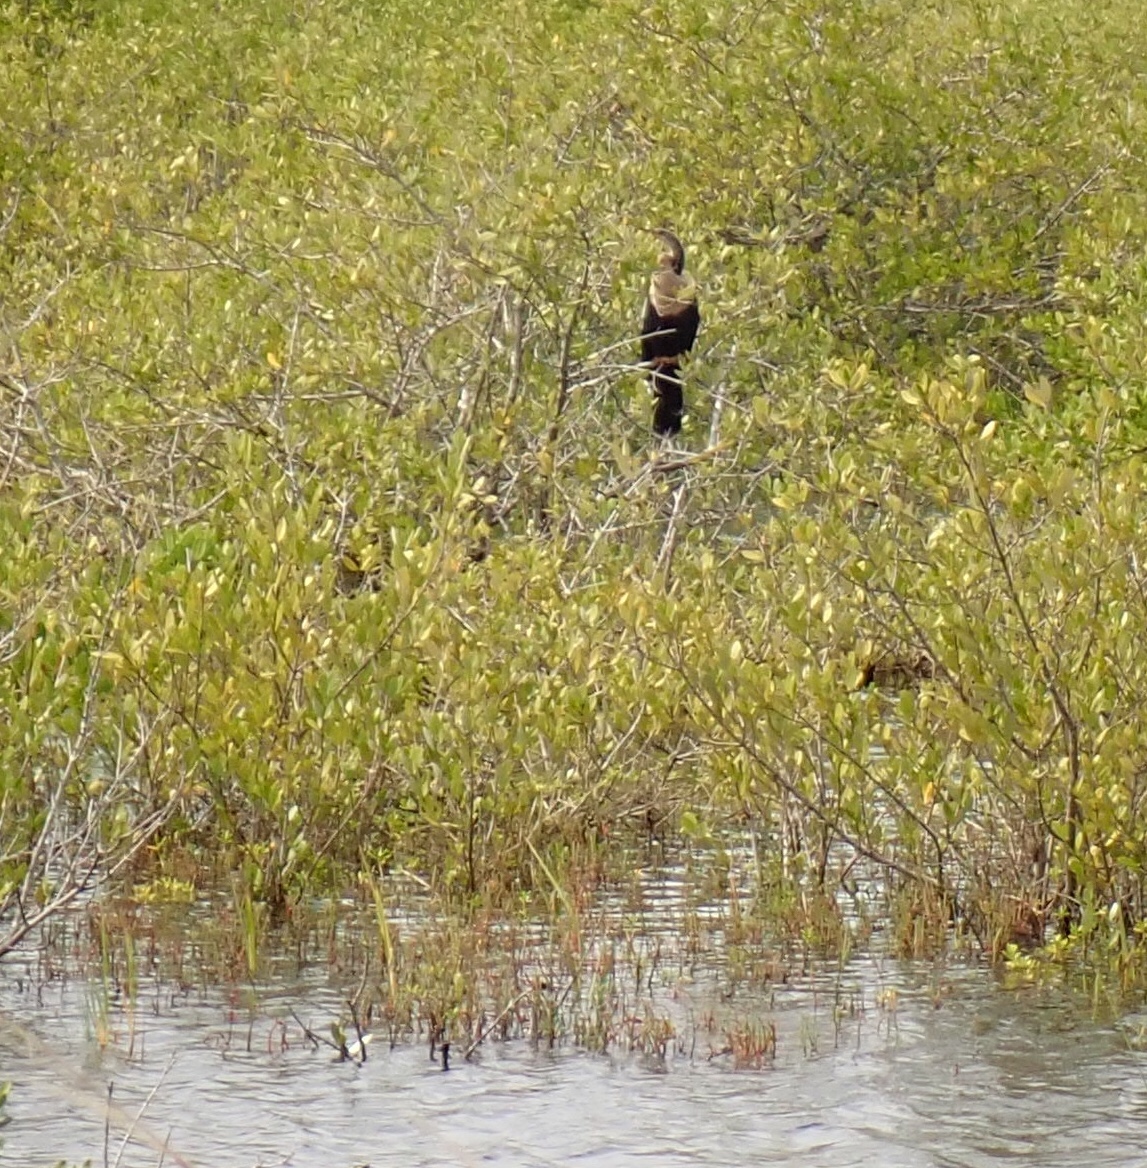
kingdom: Animalia
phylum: Chordata
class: Aves
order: Suliformes
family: Anhingidae
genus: Anhinga
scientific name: Anhinga anhinga
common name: Anhinga
